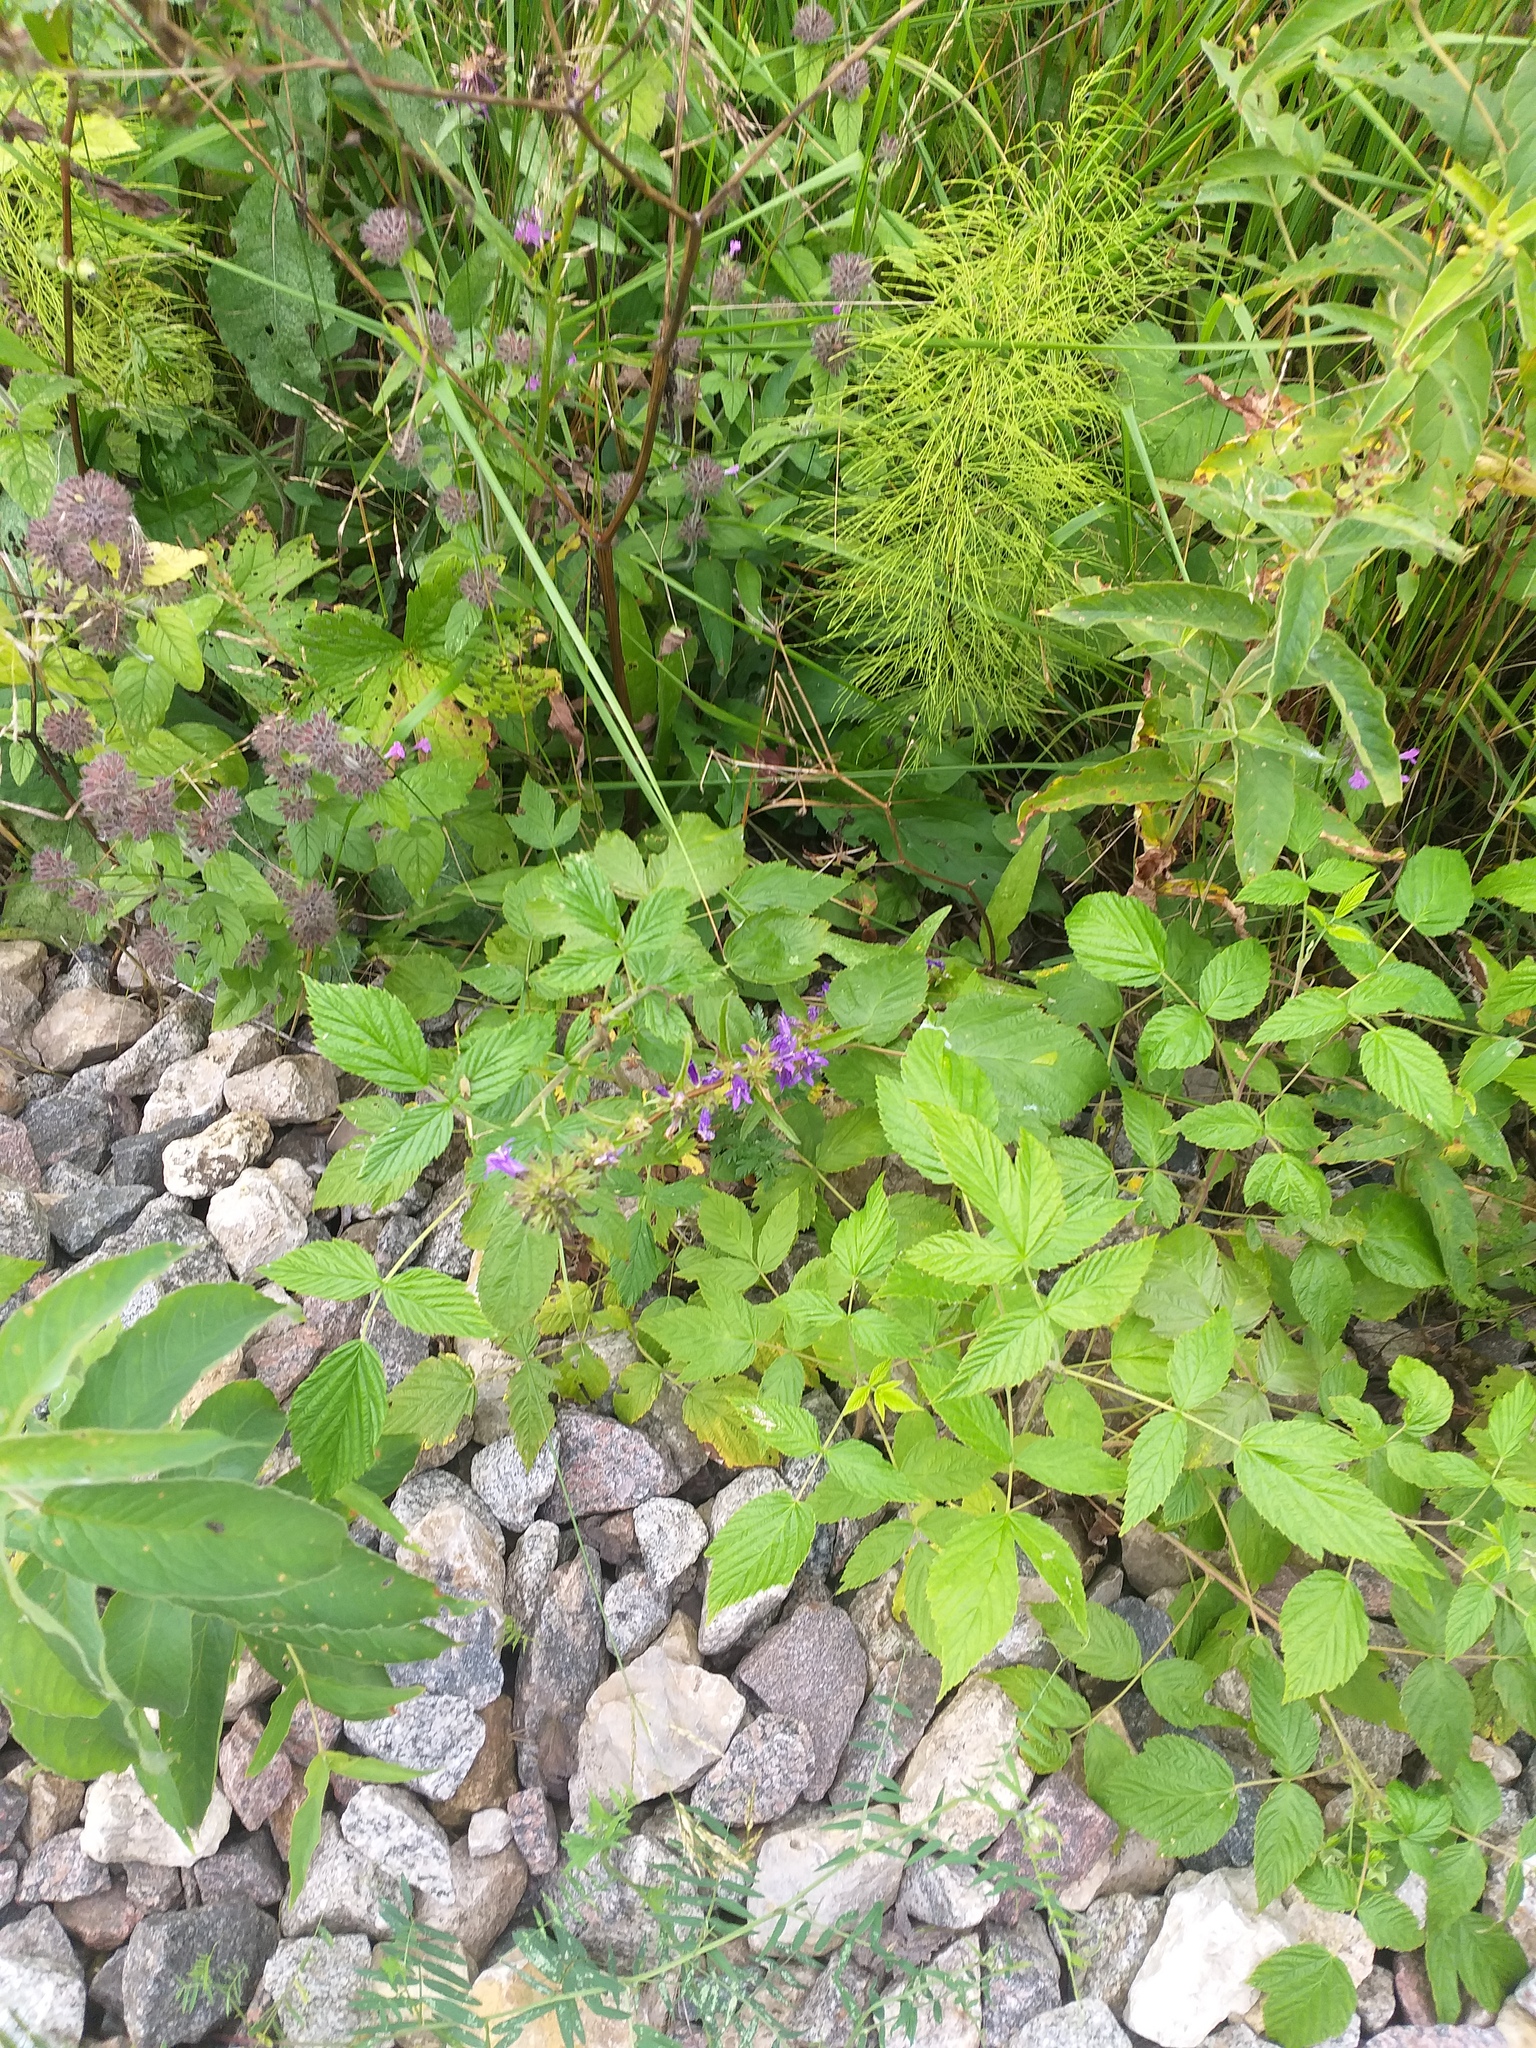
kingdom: Plantae
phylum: Tracheophyta
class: Magnoliopsida
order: Asterales
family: Campanulaceae
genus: Campanula
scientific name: Campanula glomerata
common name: Clustered bellflower
